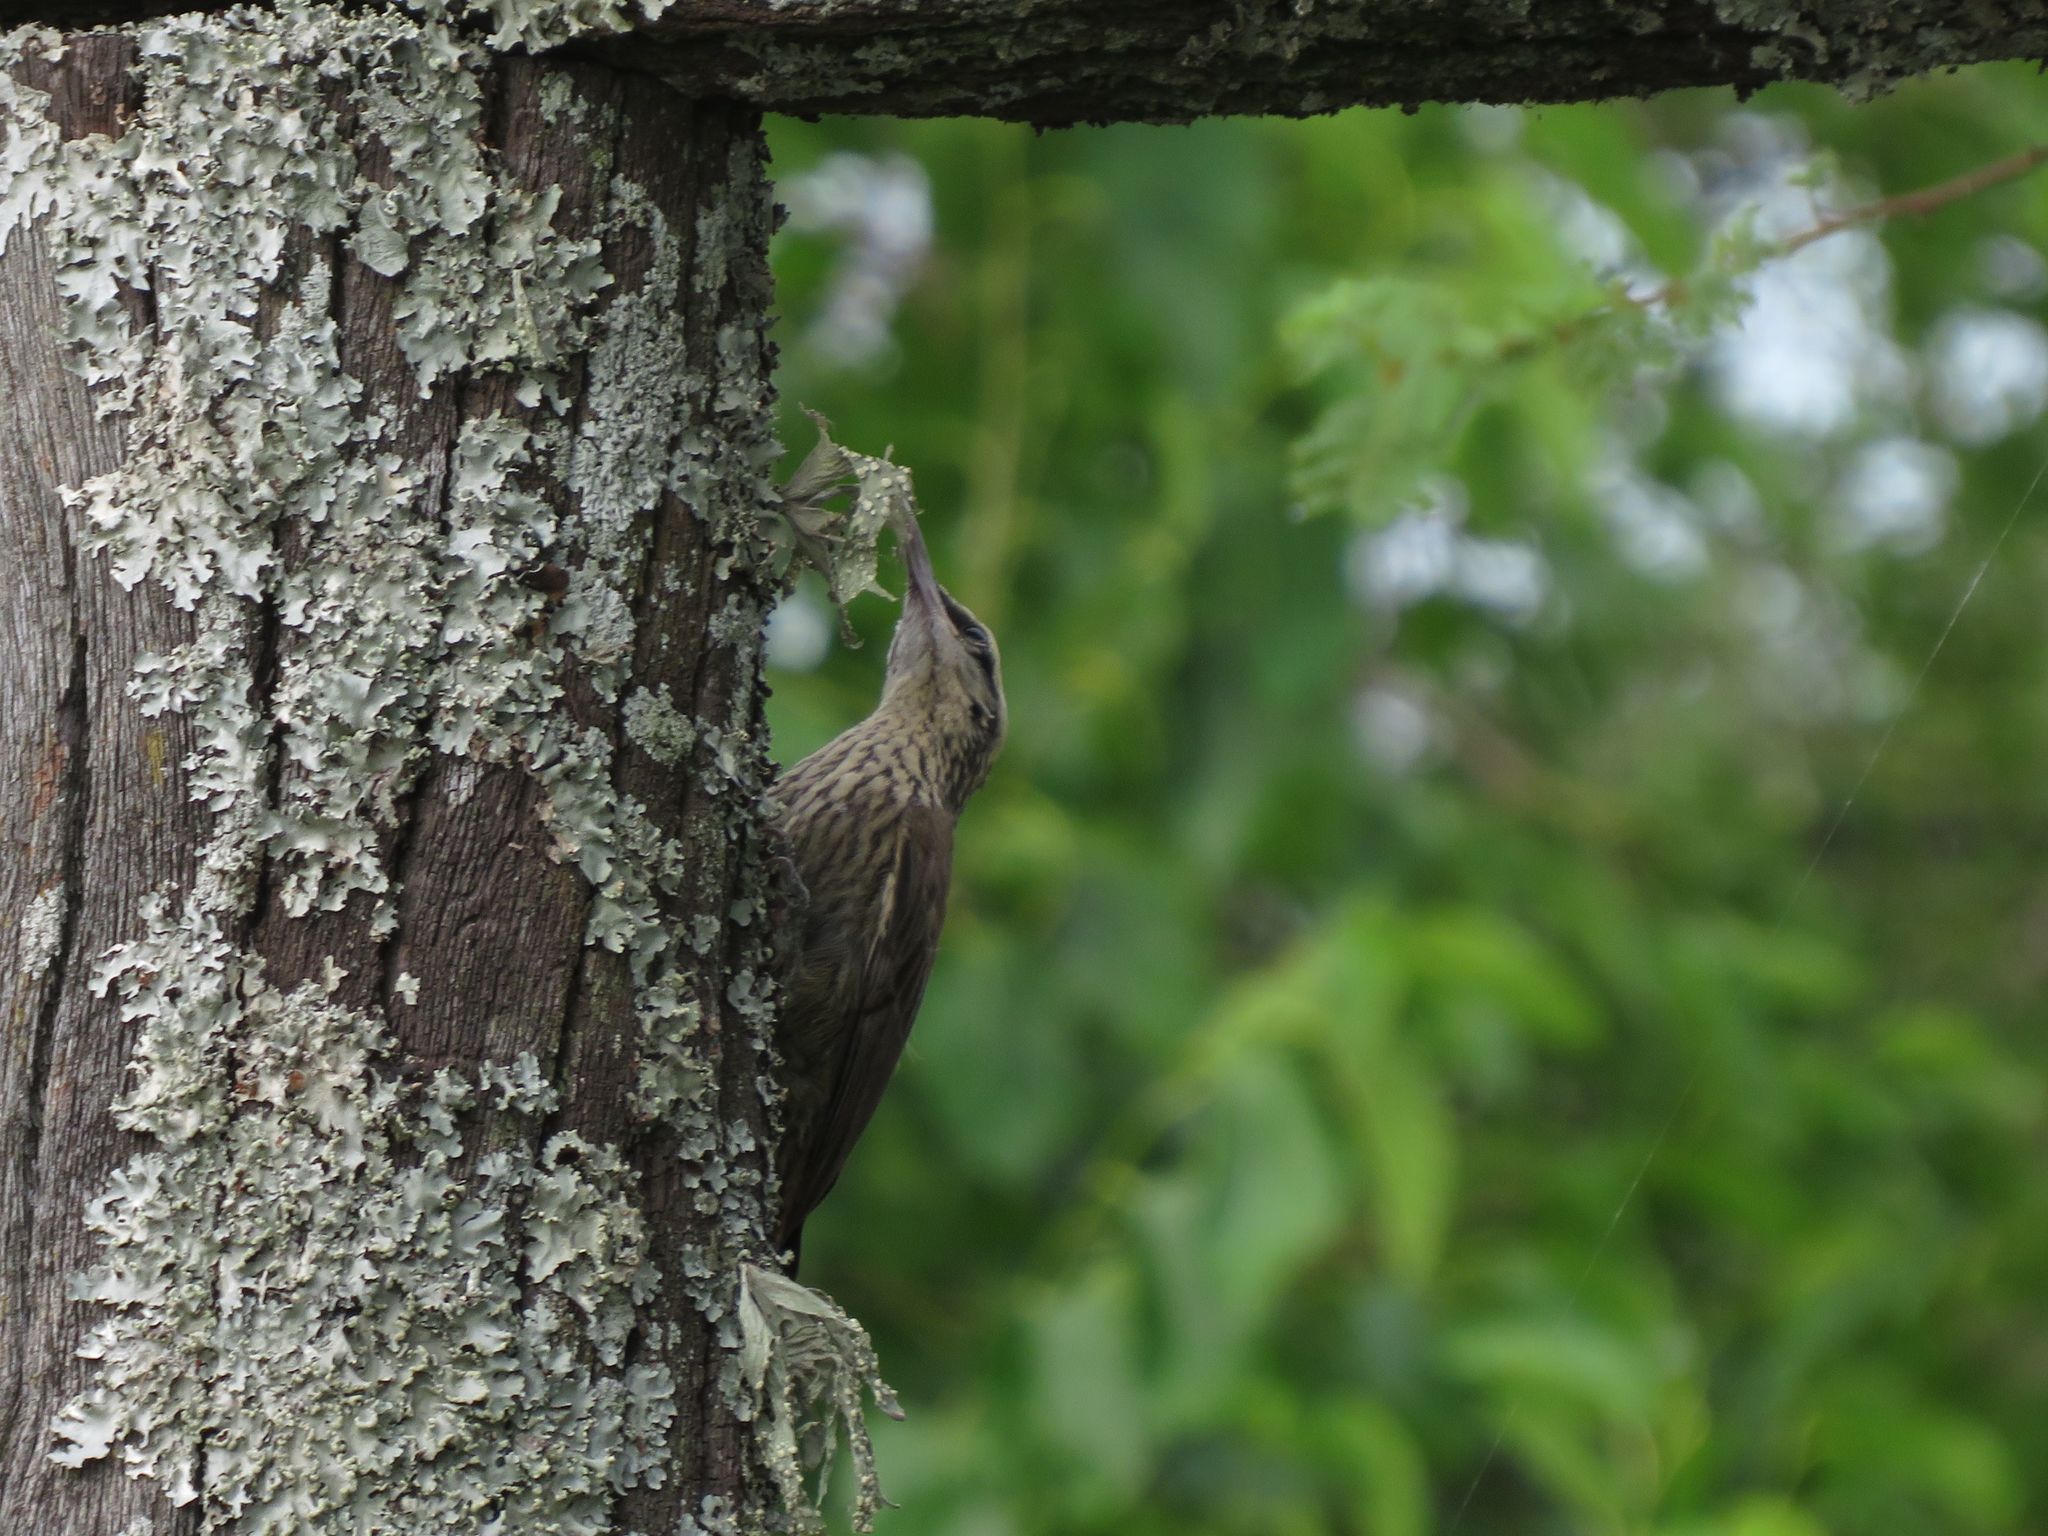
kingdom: Animalia
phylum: Chordata
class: Aves
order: Passeriformes
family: Furnariidae
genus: Lepidocolaptes
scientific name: Lepidocolaptes angustirostris
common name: Narrow-billed woodcreeper
